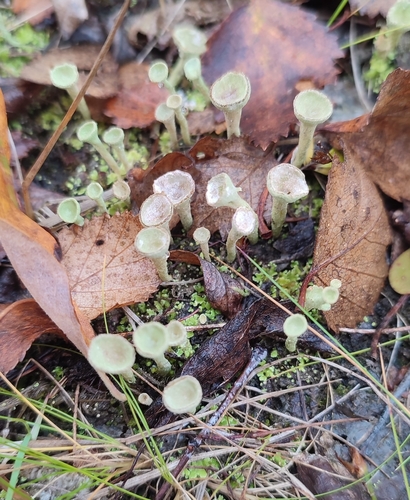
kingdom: Fungi
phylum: Ascomycota
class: Lecanoromycetes
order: Lecanorales
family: Cladoniaceae
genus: Cladonia
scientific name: Cladonia fimbriata
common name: Powdered trumpet lichen
